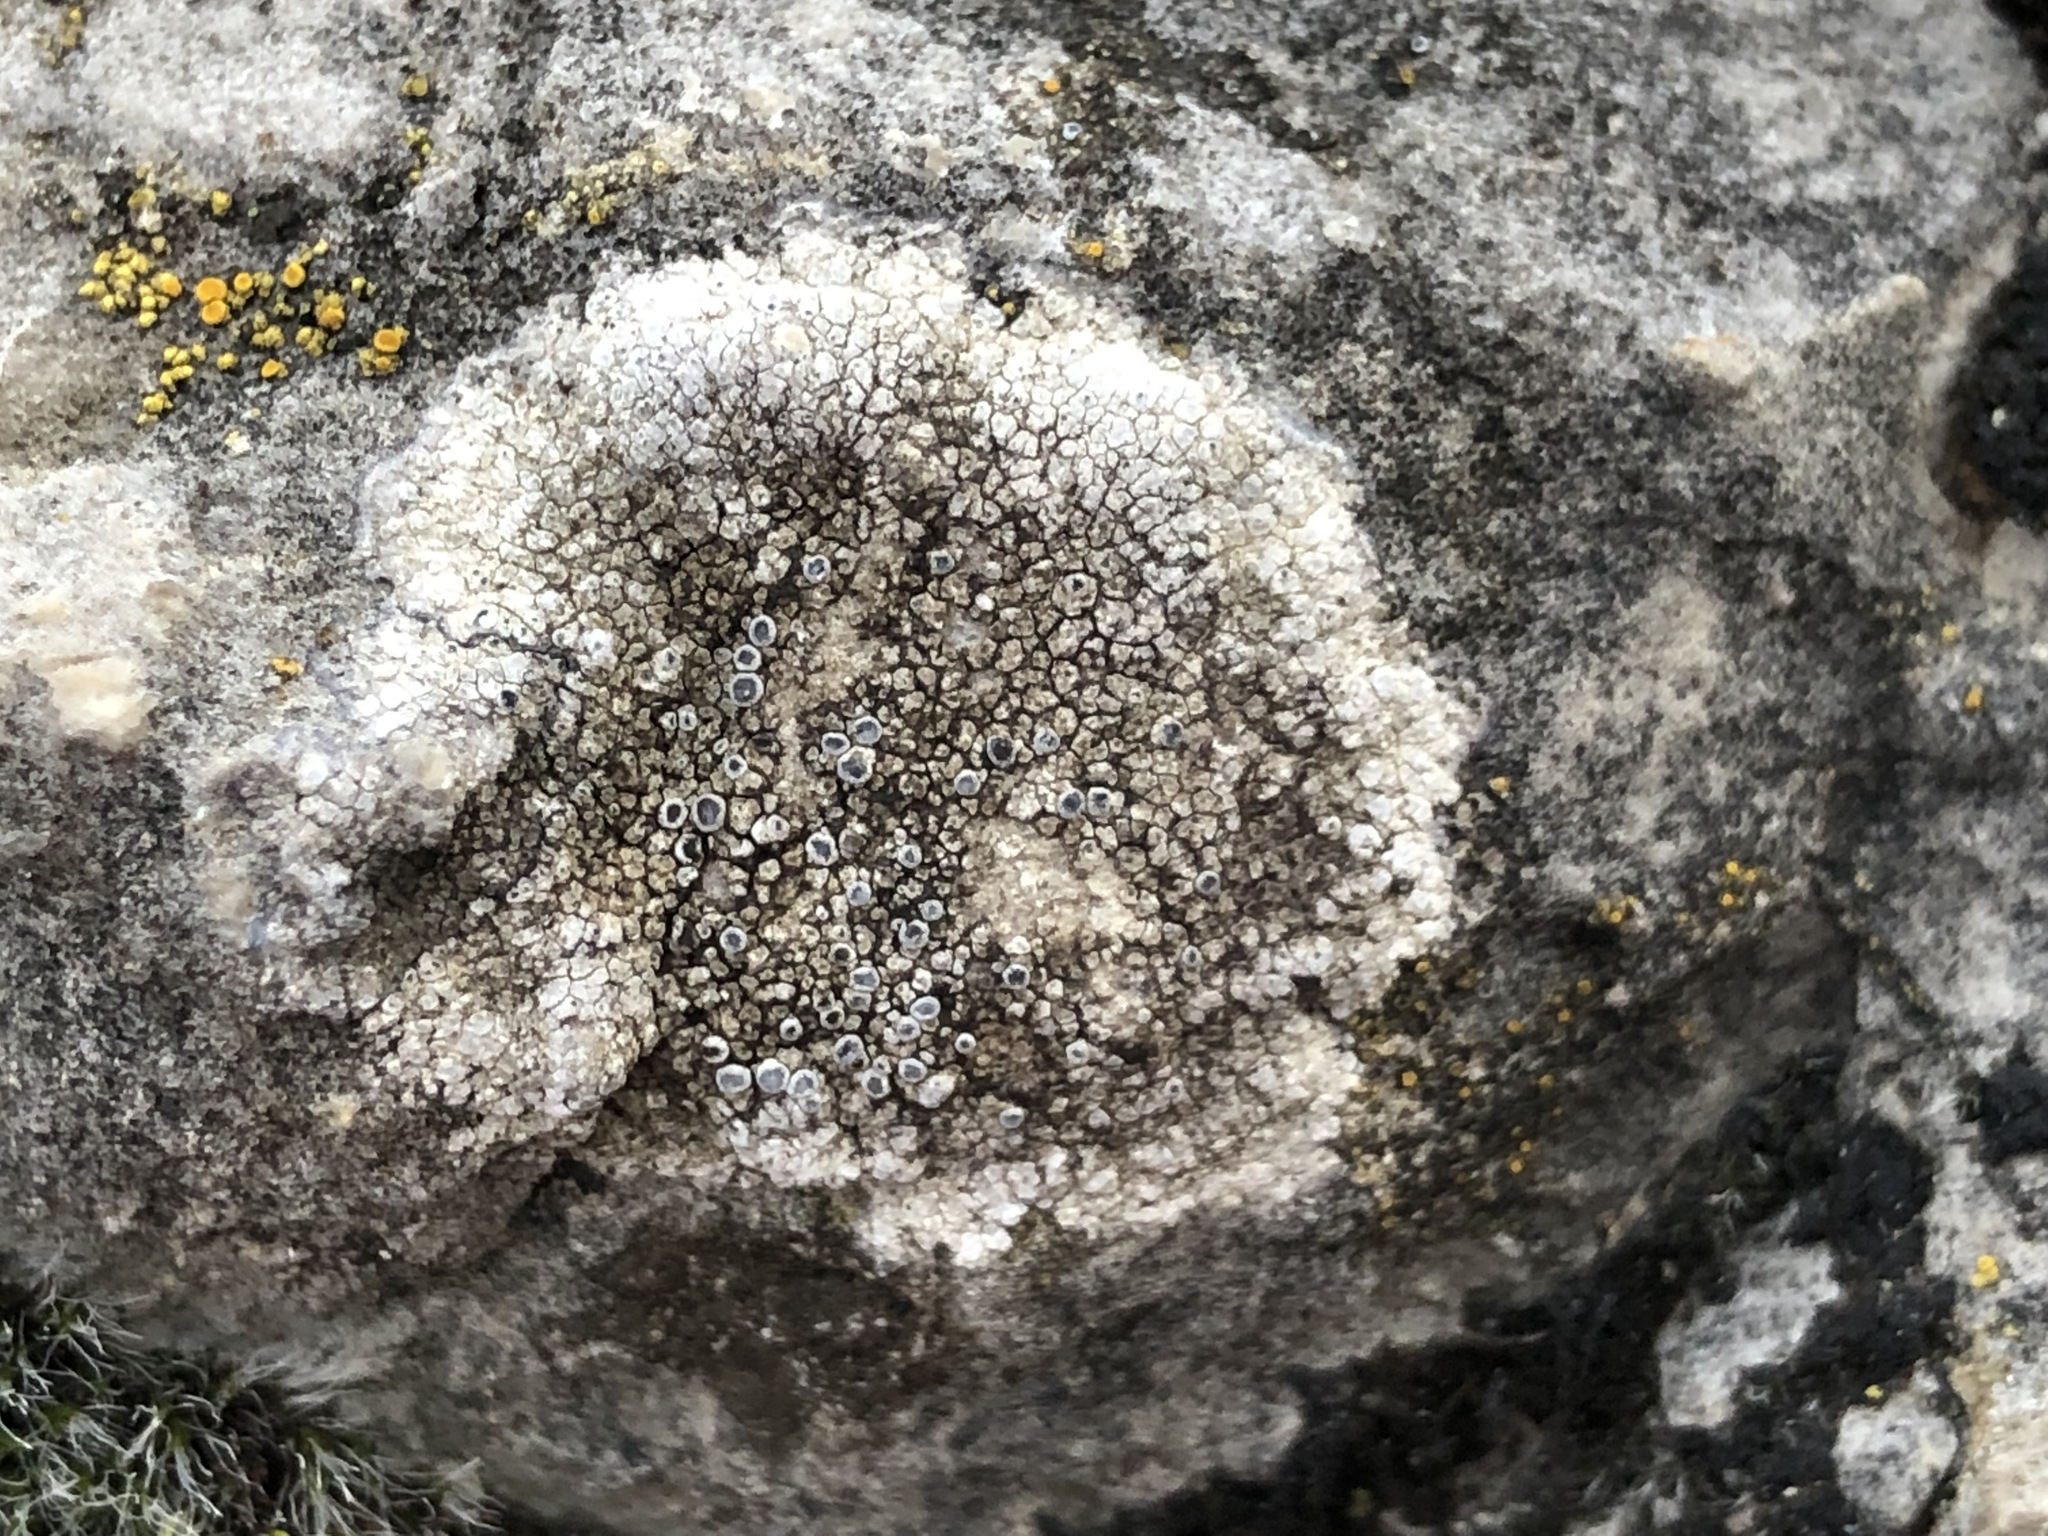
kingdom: Fungi
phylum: Ascomycota
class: Lecanoromycetes
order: Teloschistales
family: Teloschistaceae
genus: Kuettlingeria
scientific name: Kuettlingeria teicholyta
